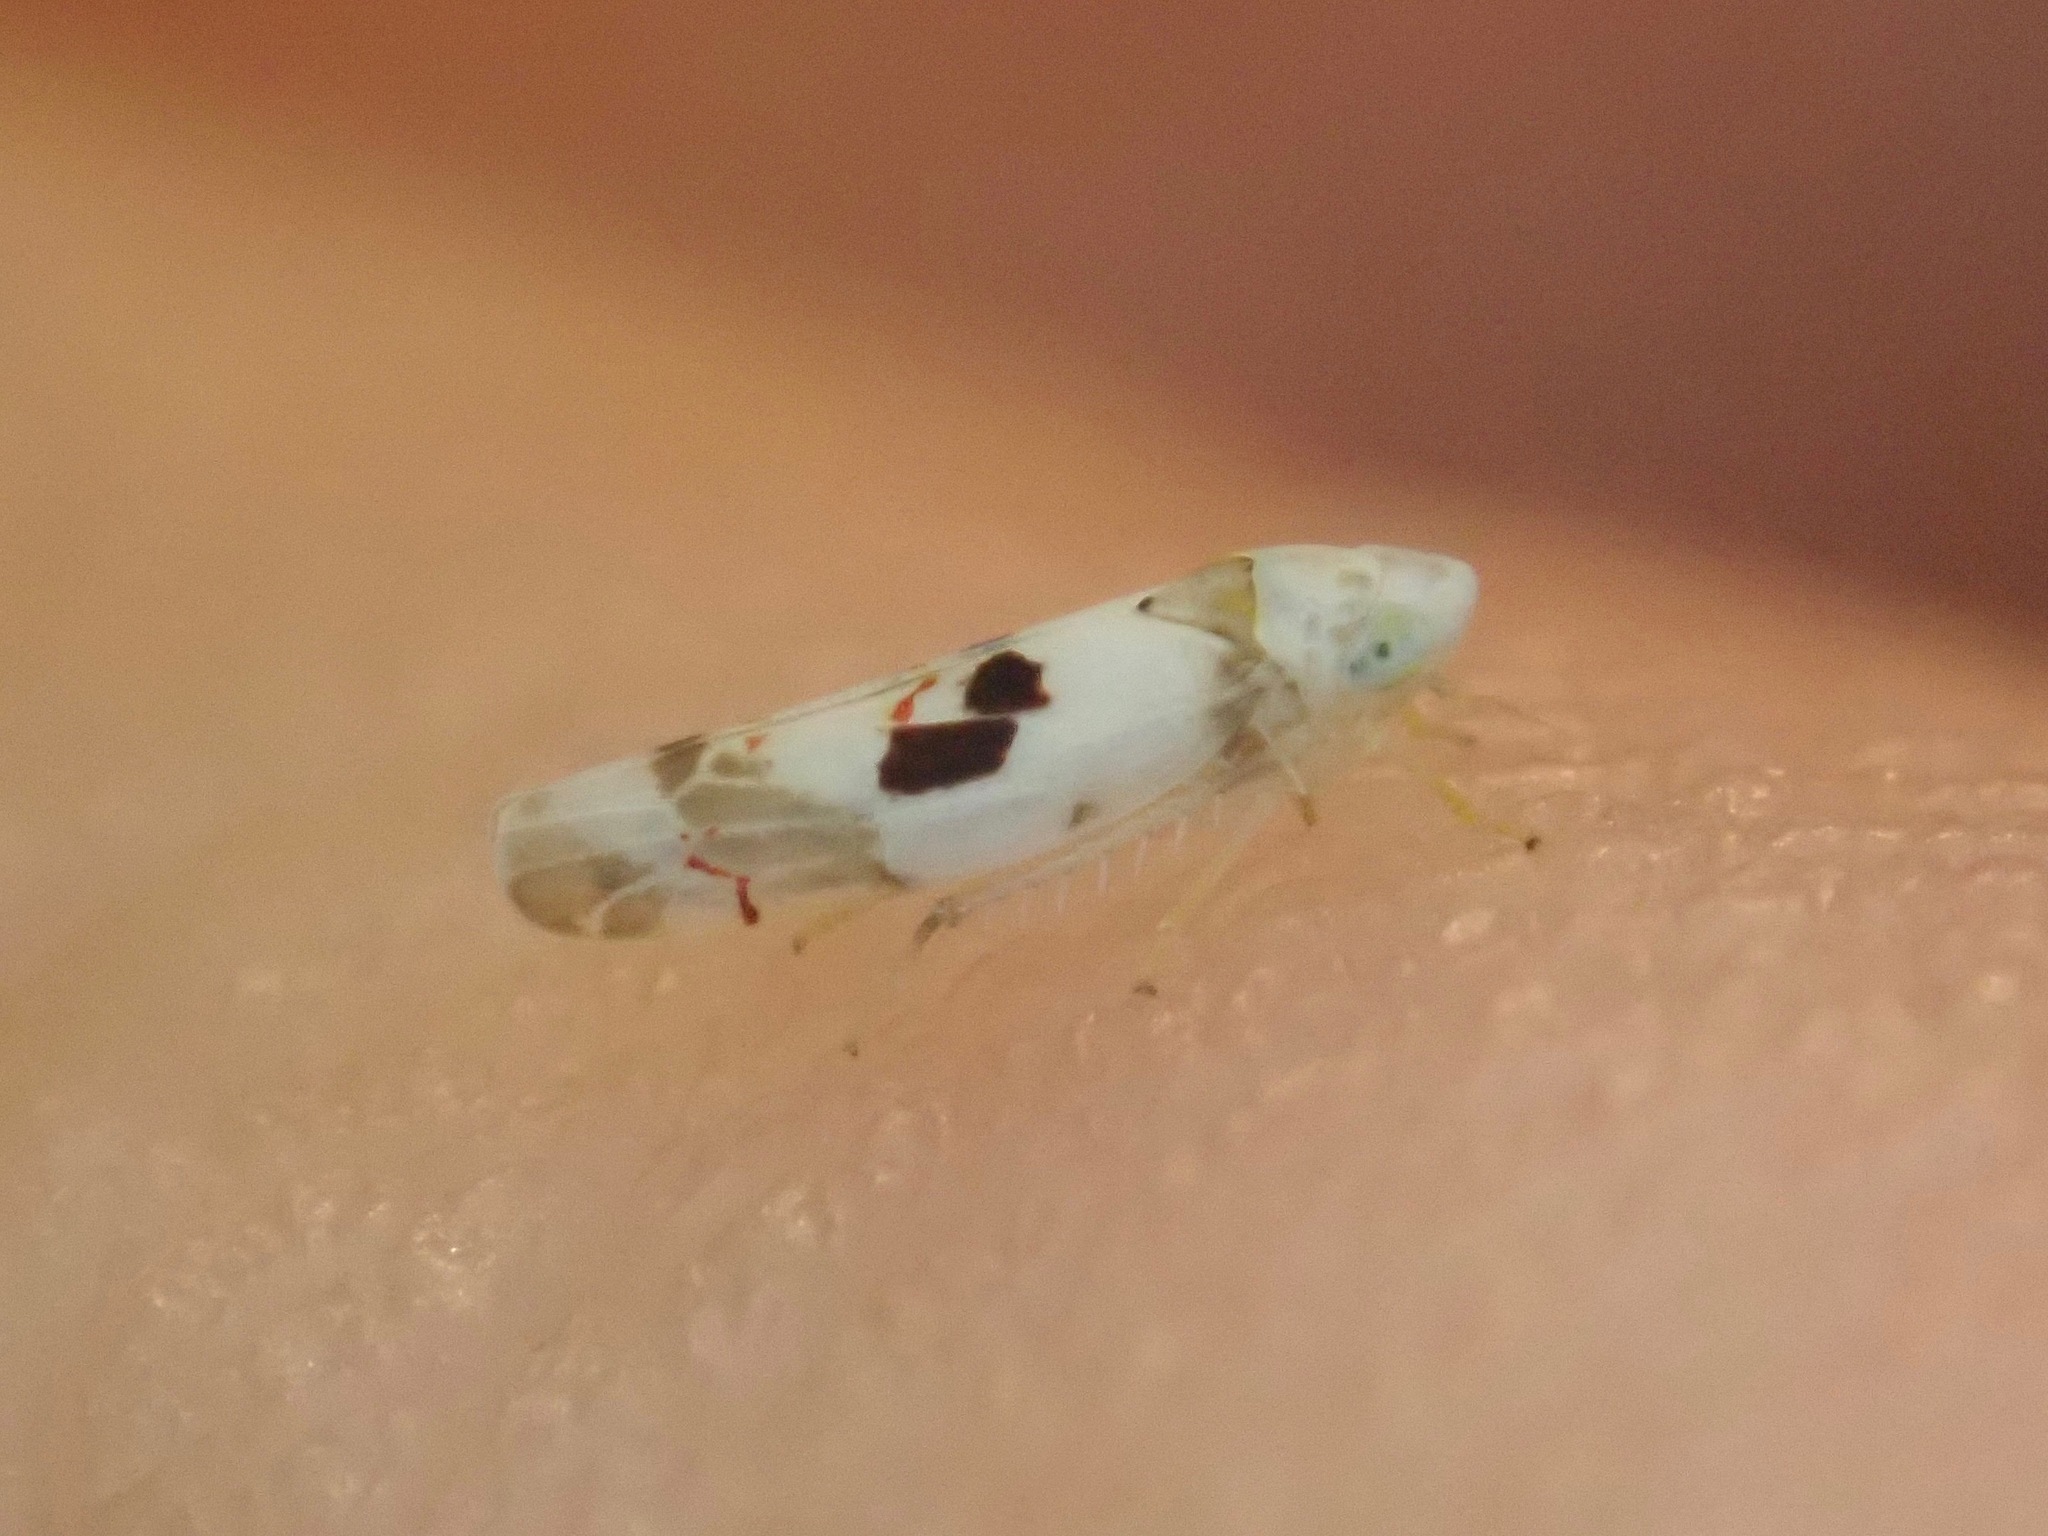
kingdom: Animalia
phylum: Arthropoda
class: Insecta
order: Hemiptera
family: Cicadellidae
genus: Eratoneura
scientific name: Eratoneura hymettana
